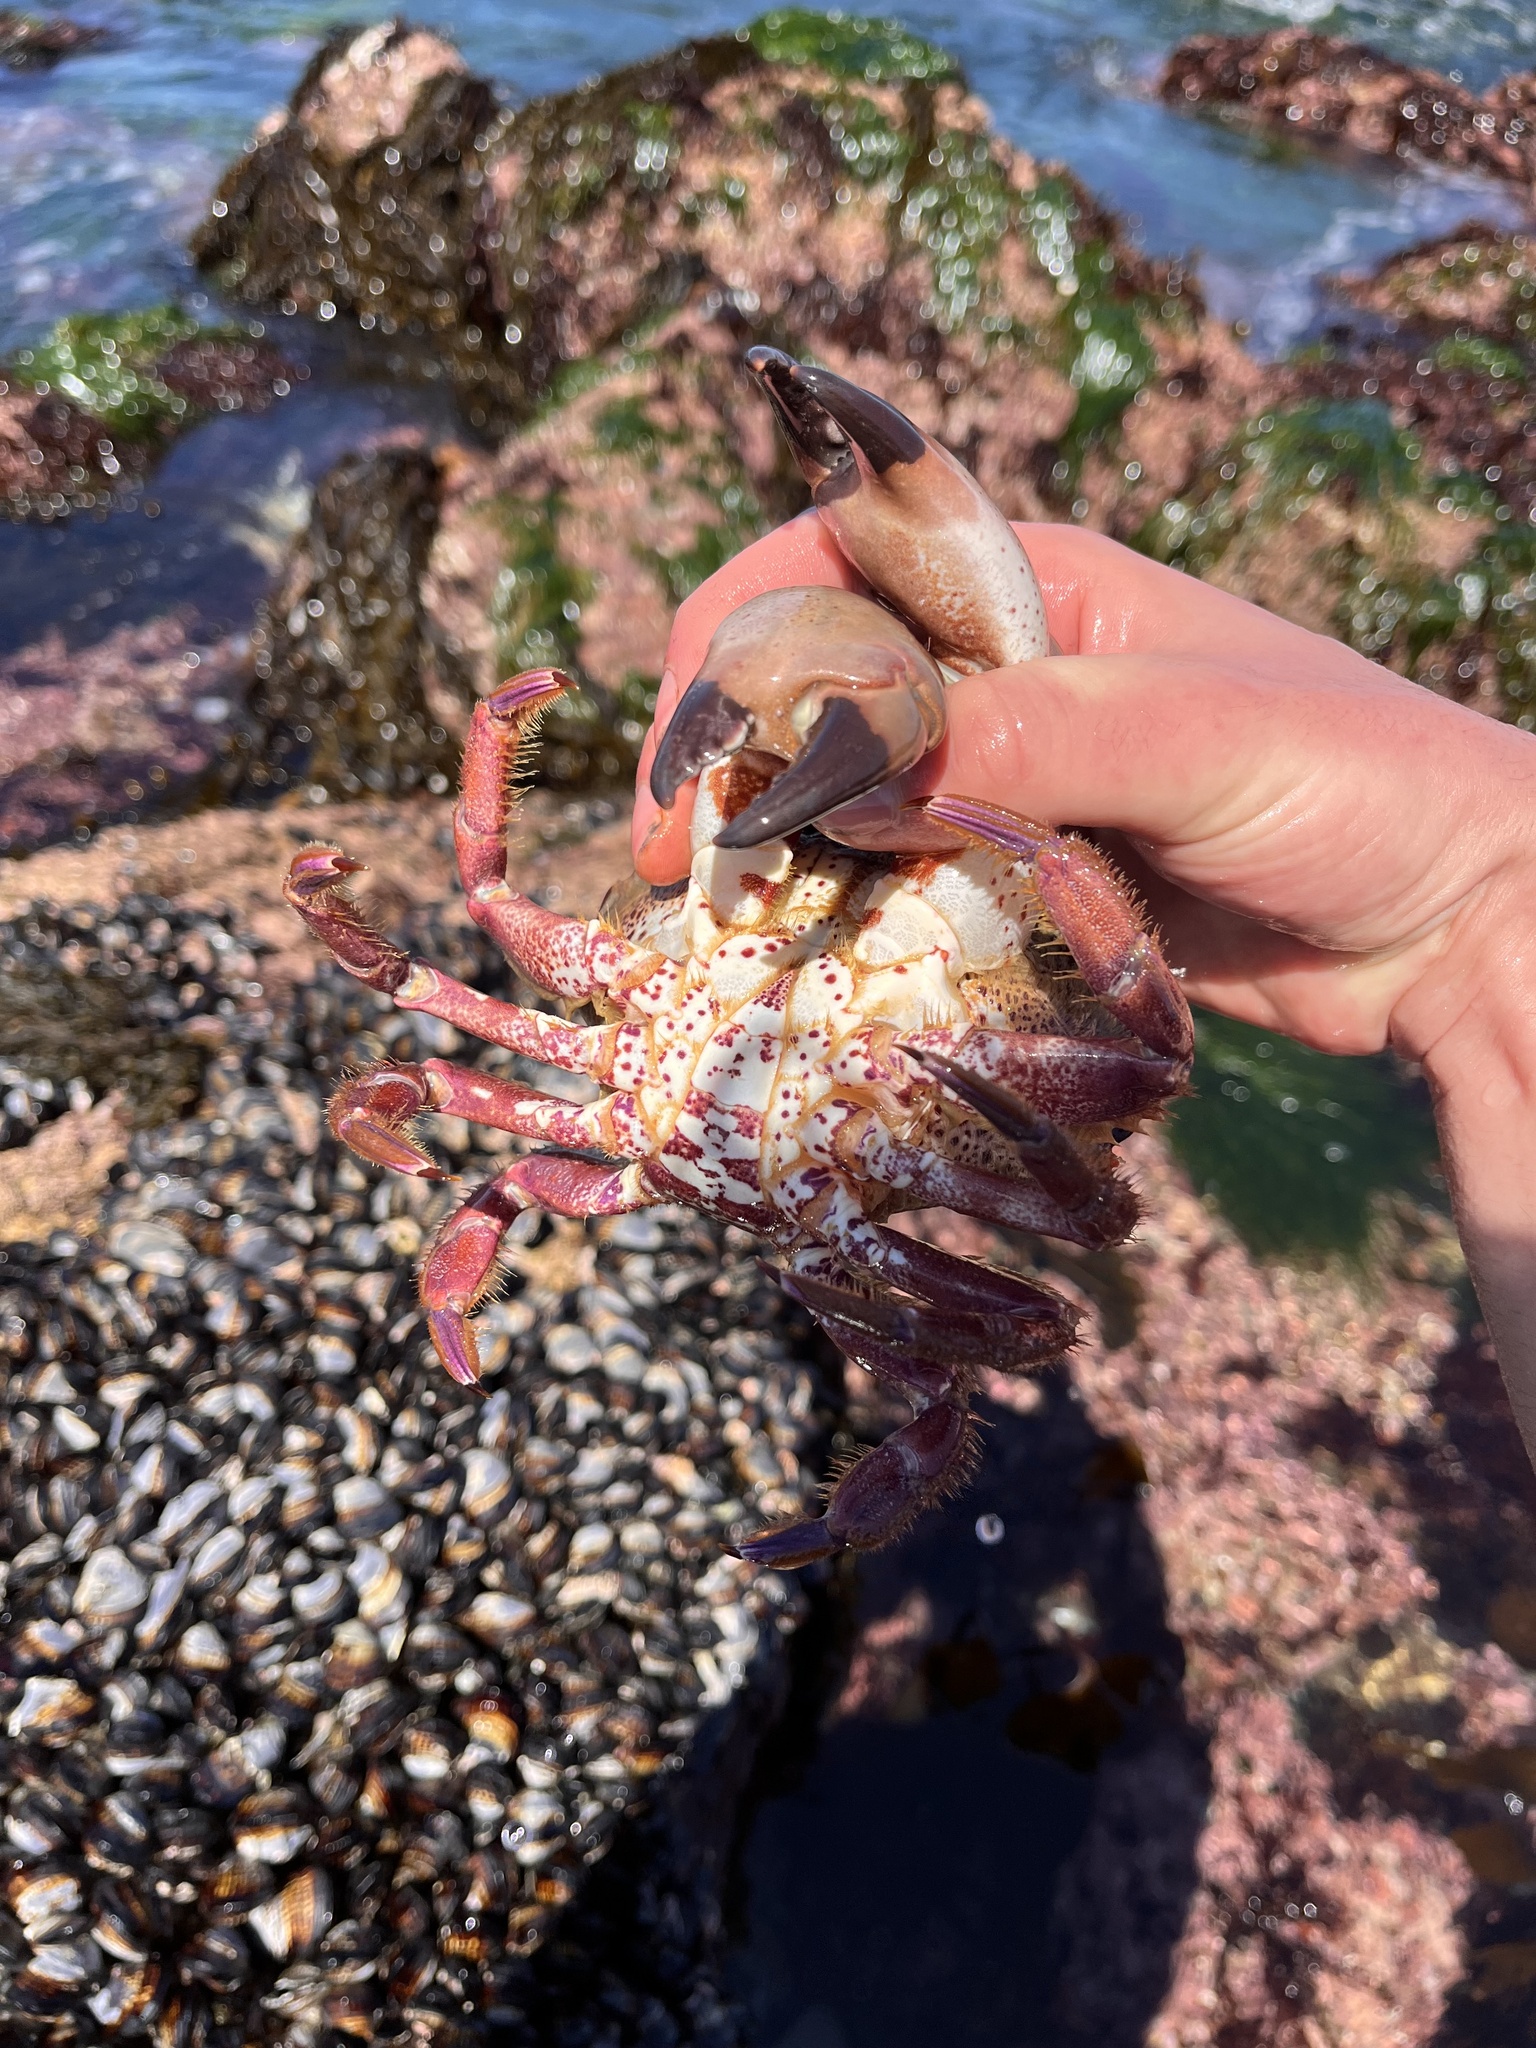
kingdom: Animalia
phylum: Arthropoda
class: Malacostraca
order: Decapoda
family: Cancridae
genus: Romaleon
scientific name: Romaleon antennarium
